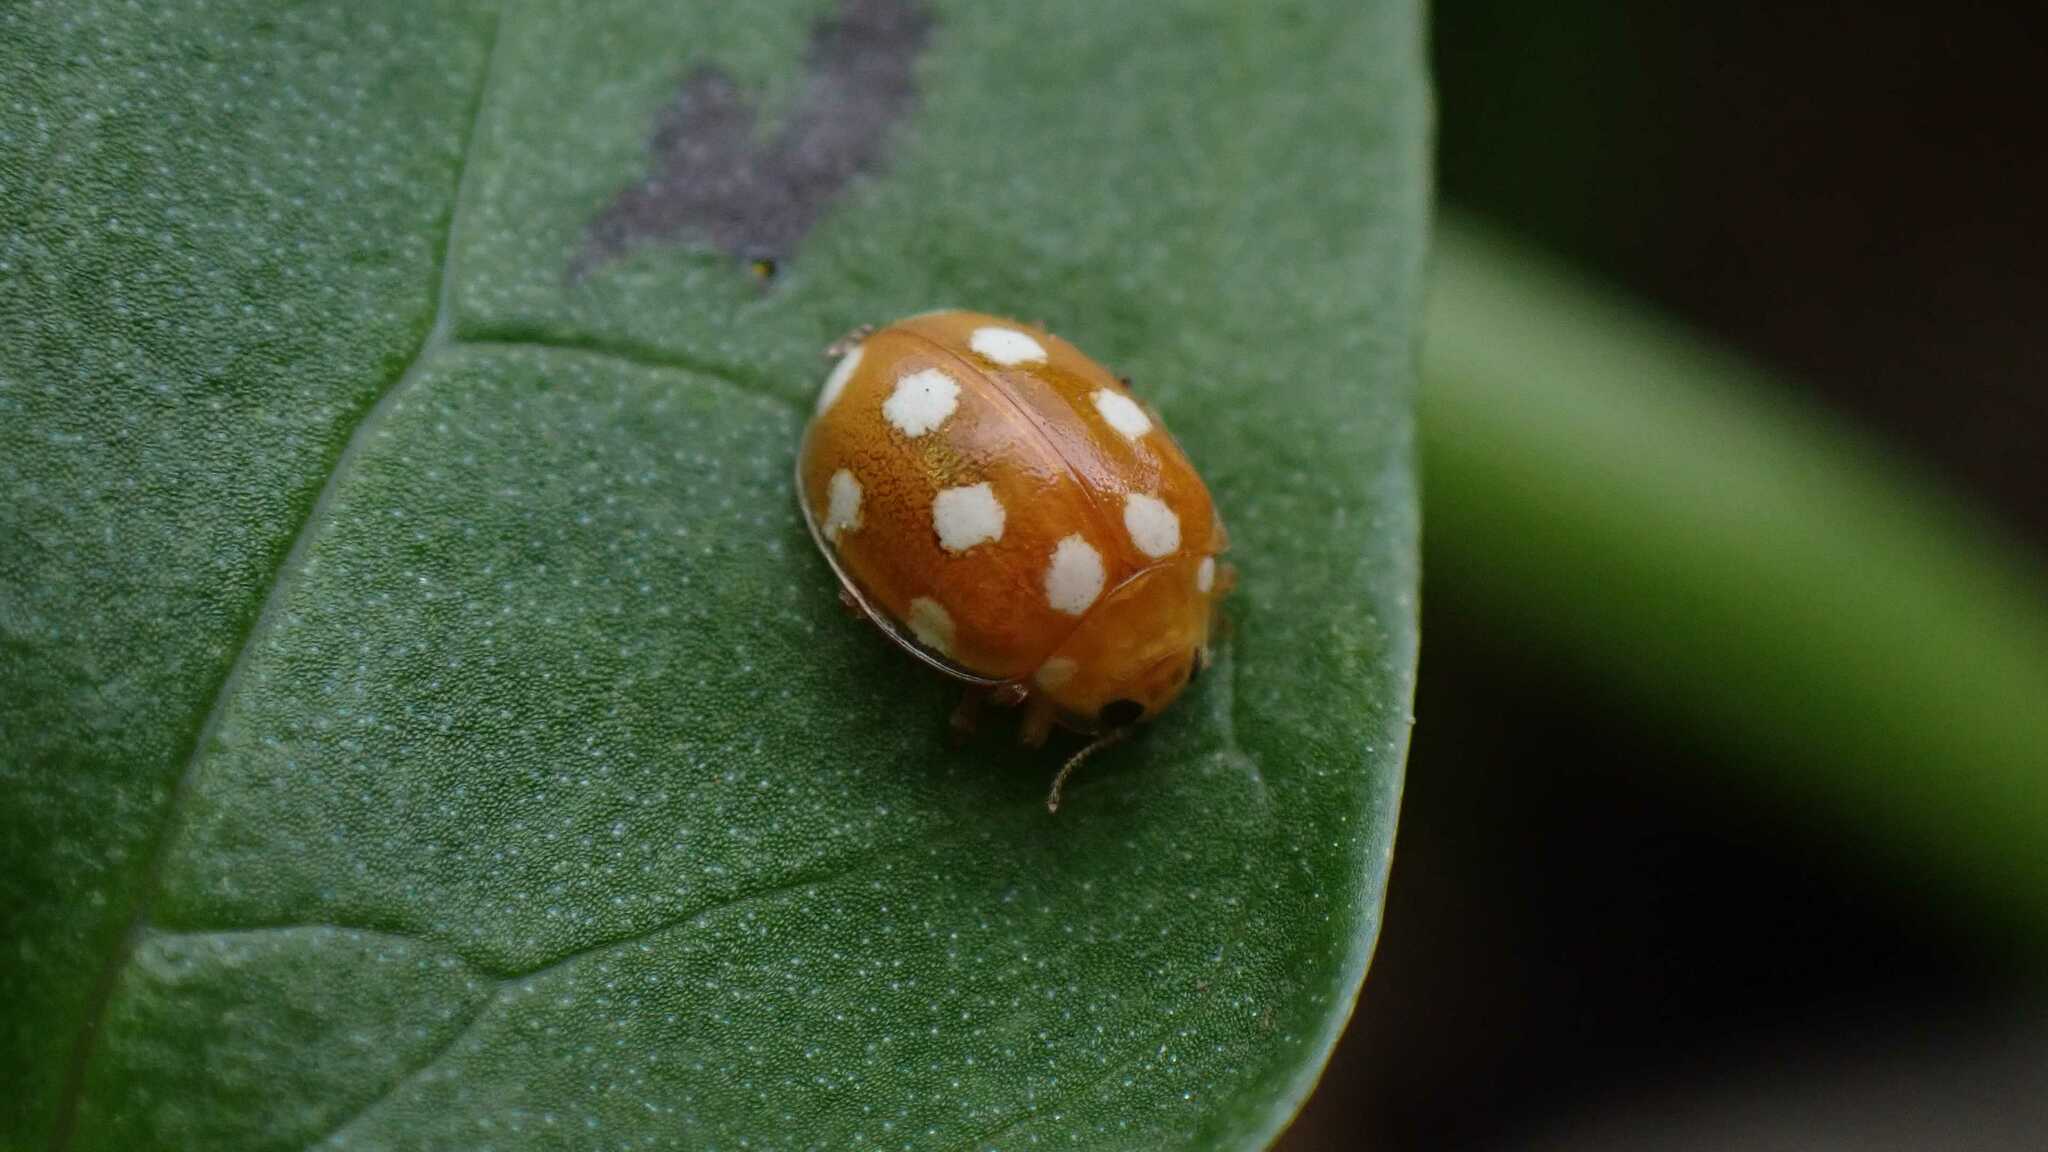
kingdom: Animalia
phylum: Arthropoda
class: Insecta
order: Coleoptera
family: Coccinellidae
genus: Vibidia
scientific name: Vibidia duodecimguttata
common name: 12-spot ladybird
